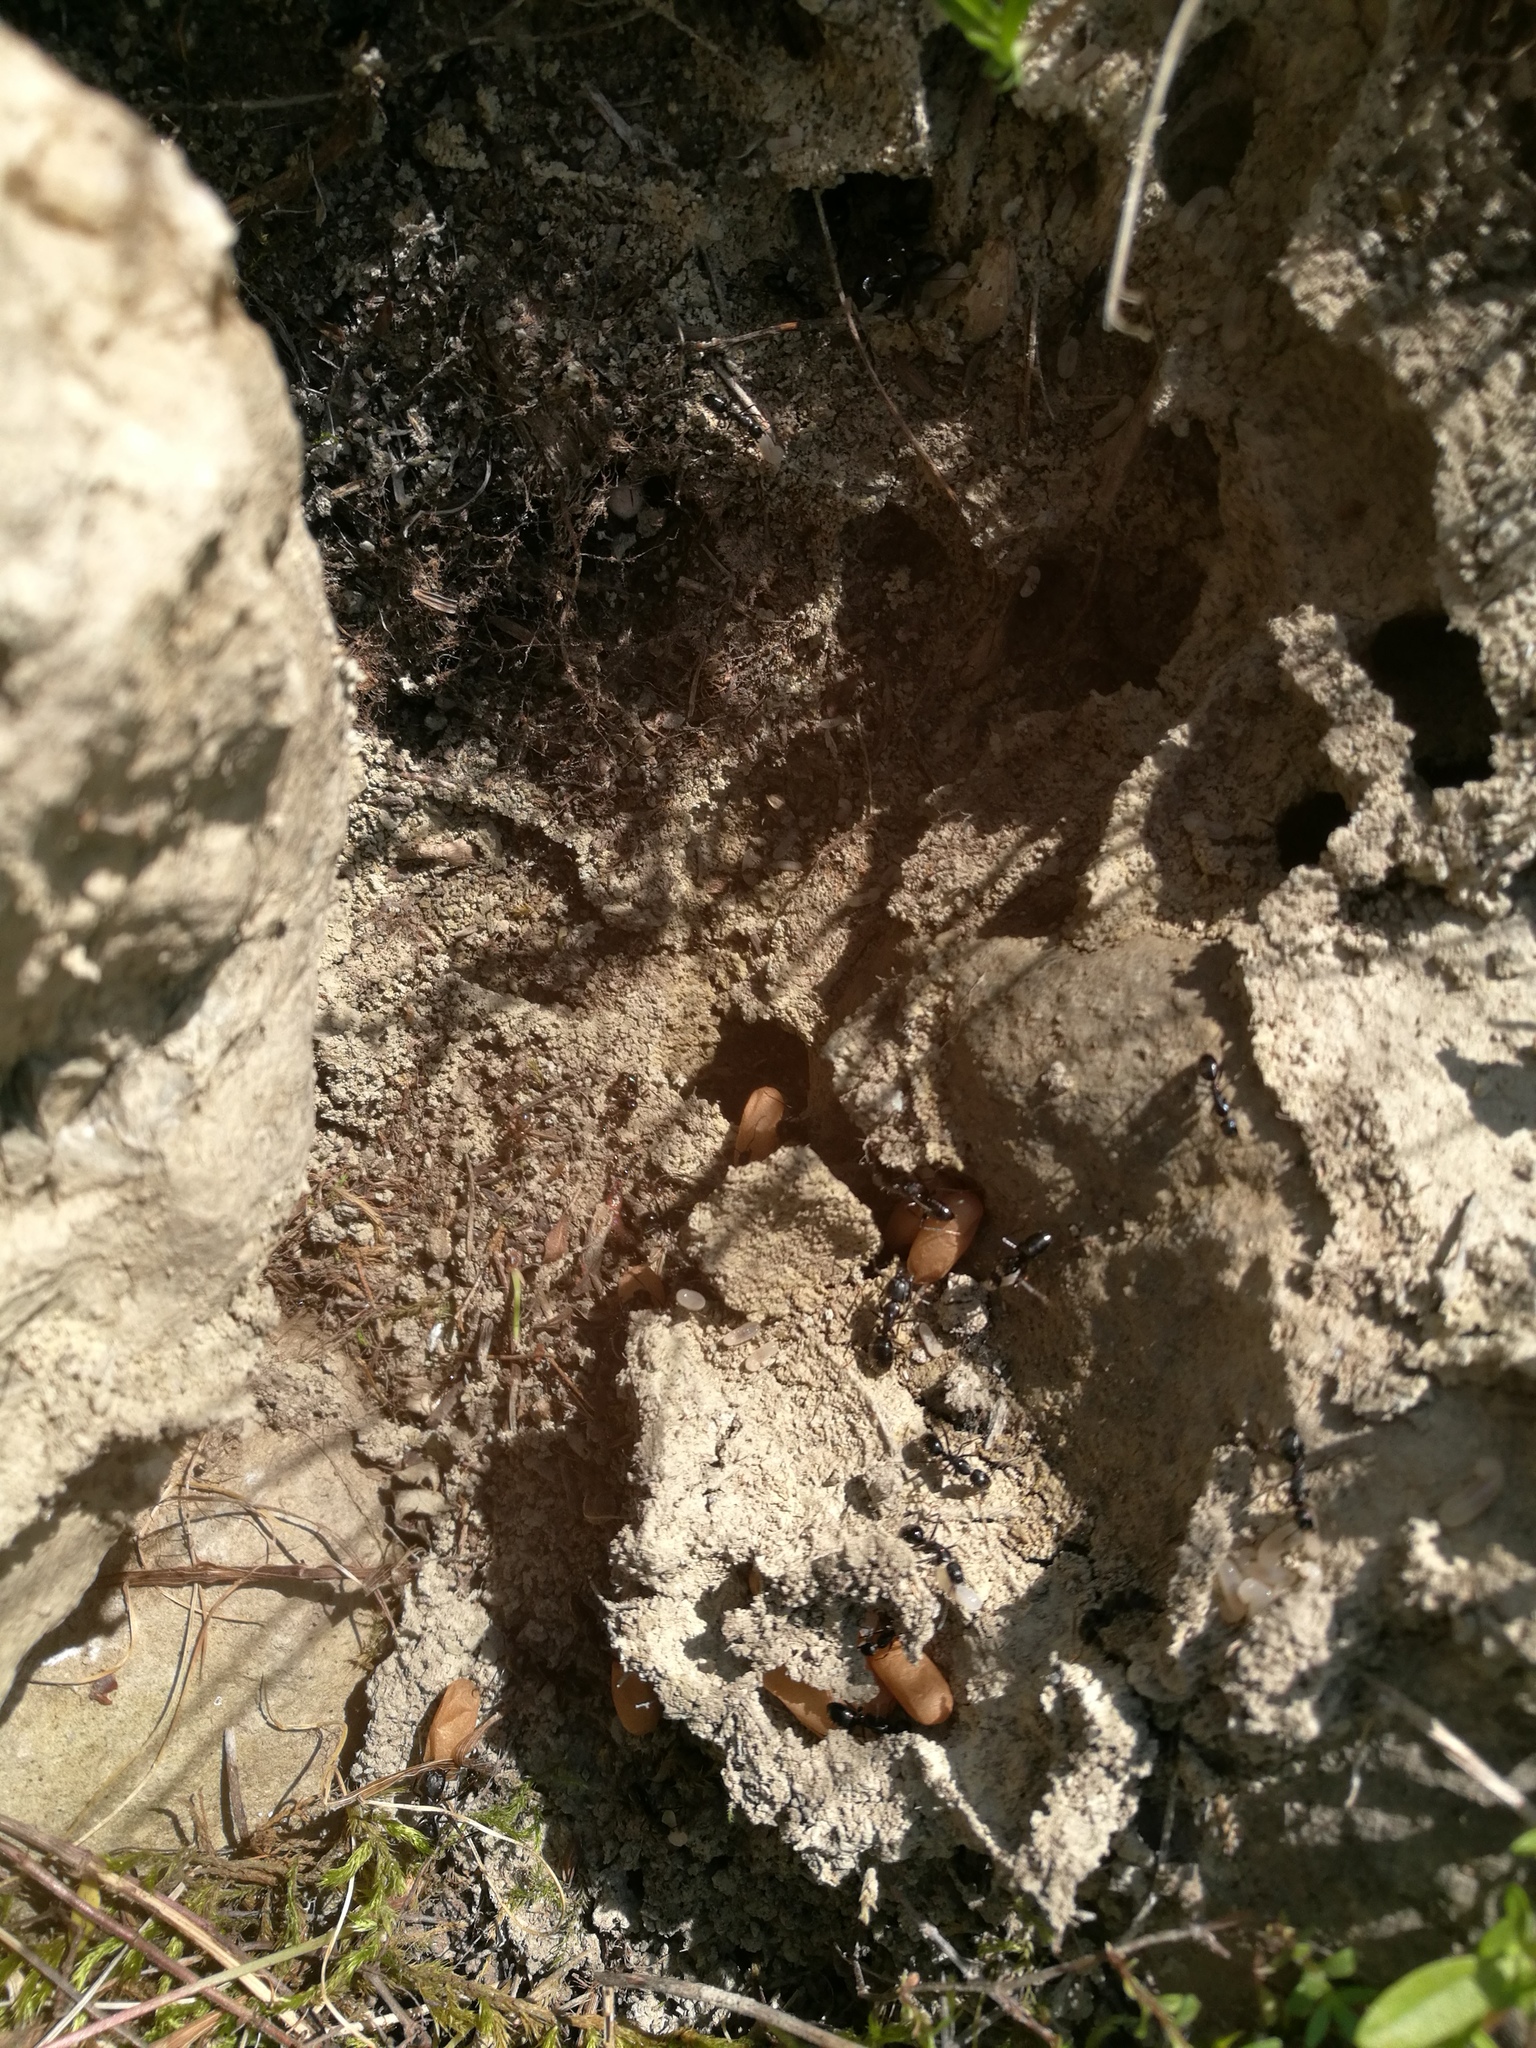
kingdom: Animalia
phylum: Arthropoda
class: Insecta
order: Hymenoptera
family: Formicidae
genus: Camponotus
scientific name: Camponotus aethiops
